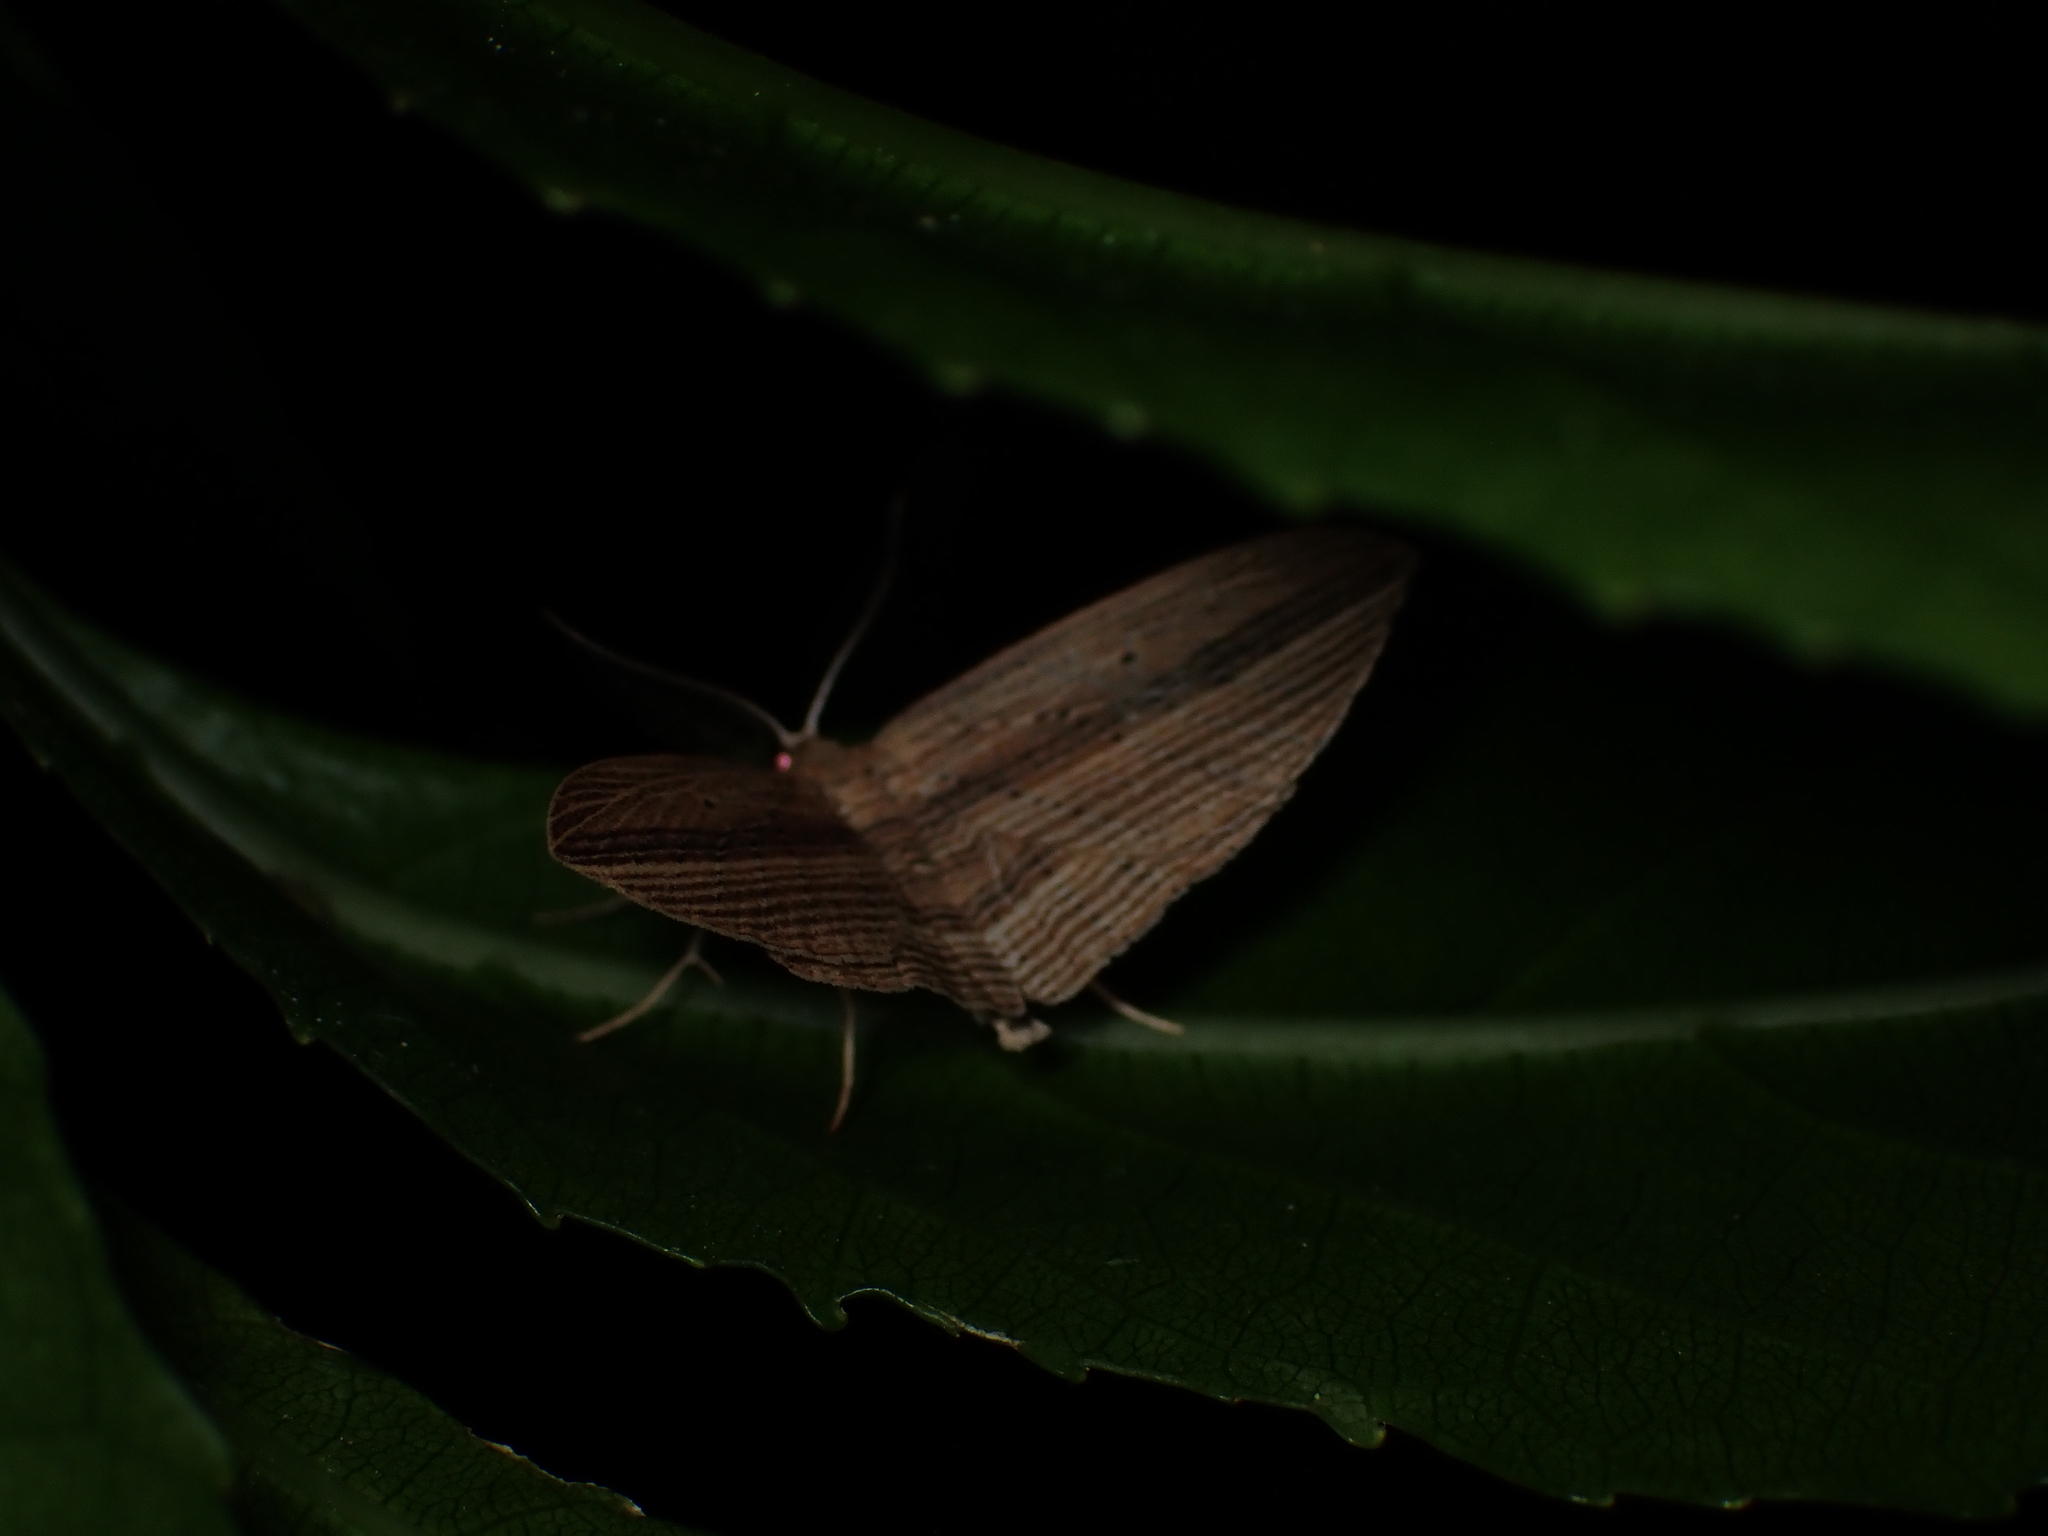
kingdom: Animalia
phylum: Arthropoda
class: Insecta
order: Lepidoptera
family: Geometridae
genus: Epiphryne
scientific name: Epiphryne verriculata
